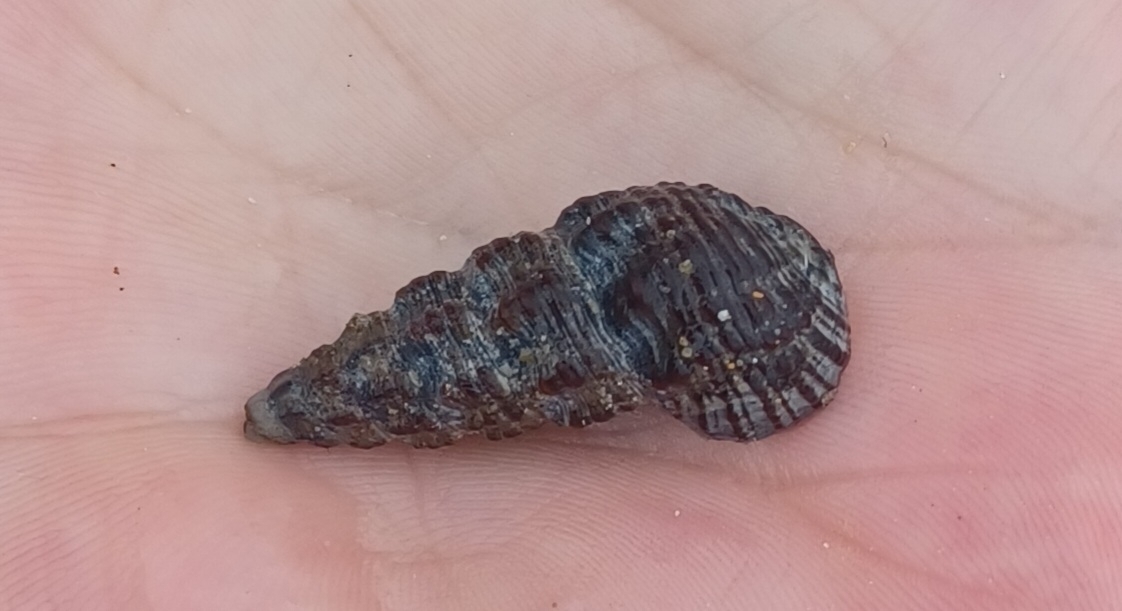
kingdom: Animalia
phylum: Mollusca
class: Gastropoda
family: Batillariidae
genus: Batillaria
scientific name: Batillaria australis
